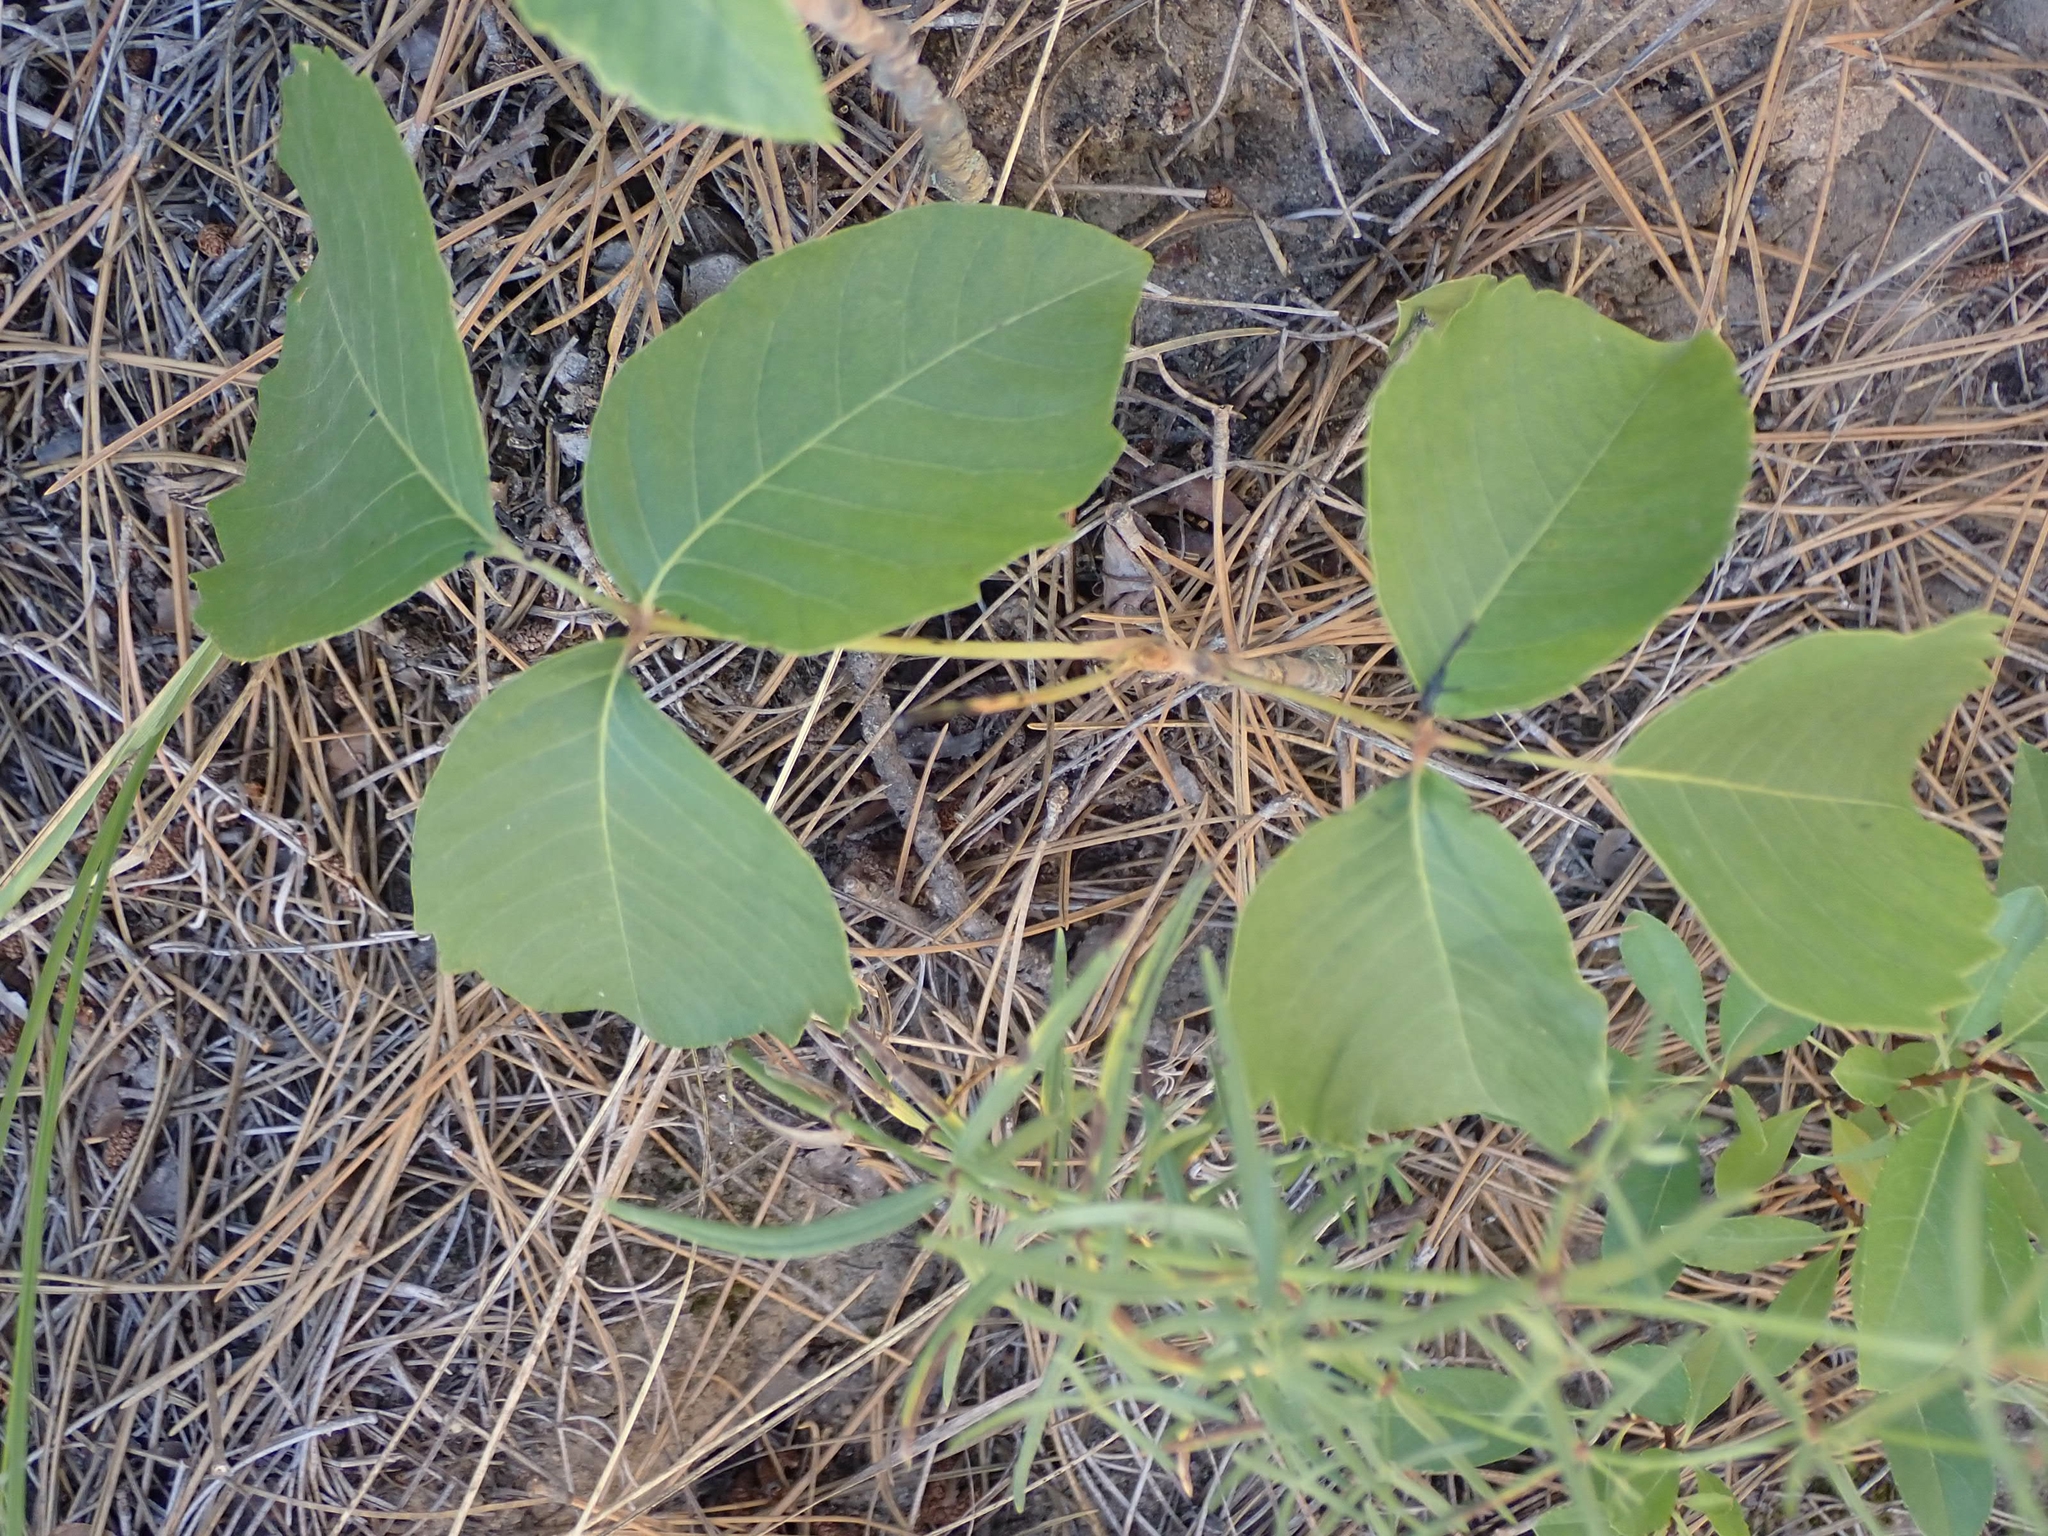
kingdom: Plantae
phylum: Tracheophyta
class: Magnoliopsida
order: Sapindales
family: Anacardiaceae
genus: Toxicodendron
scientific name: Toxicodendron rydbergii
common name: Rydberg's poison-ivy
